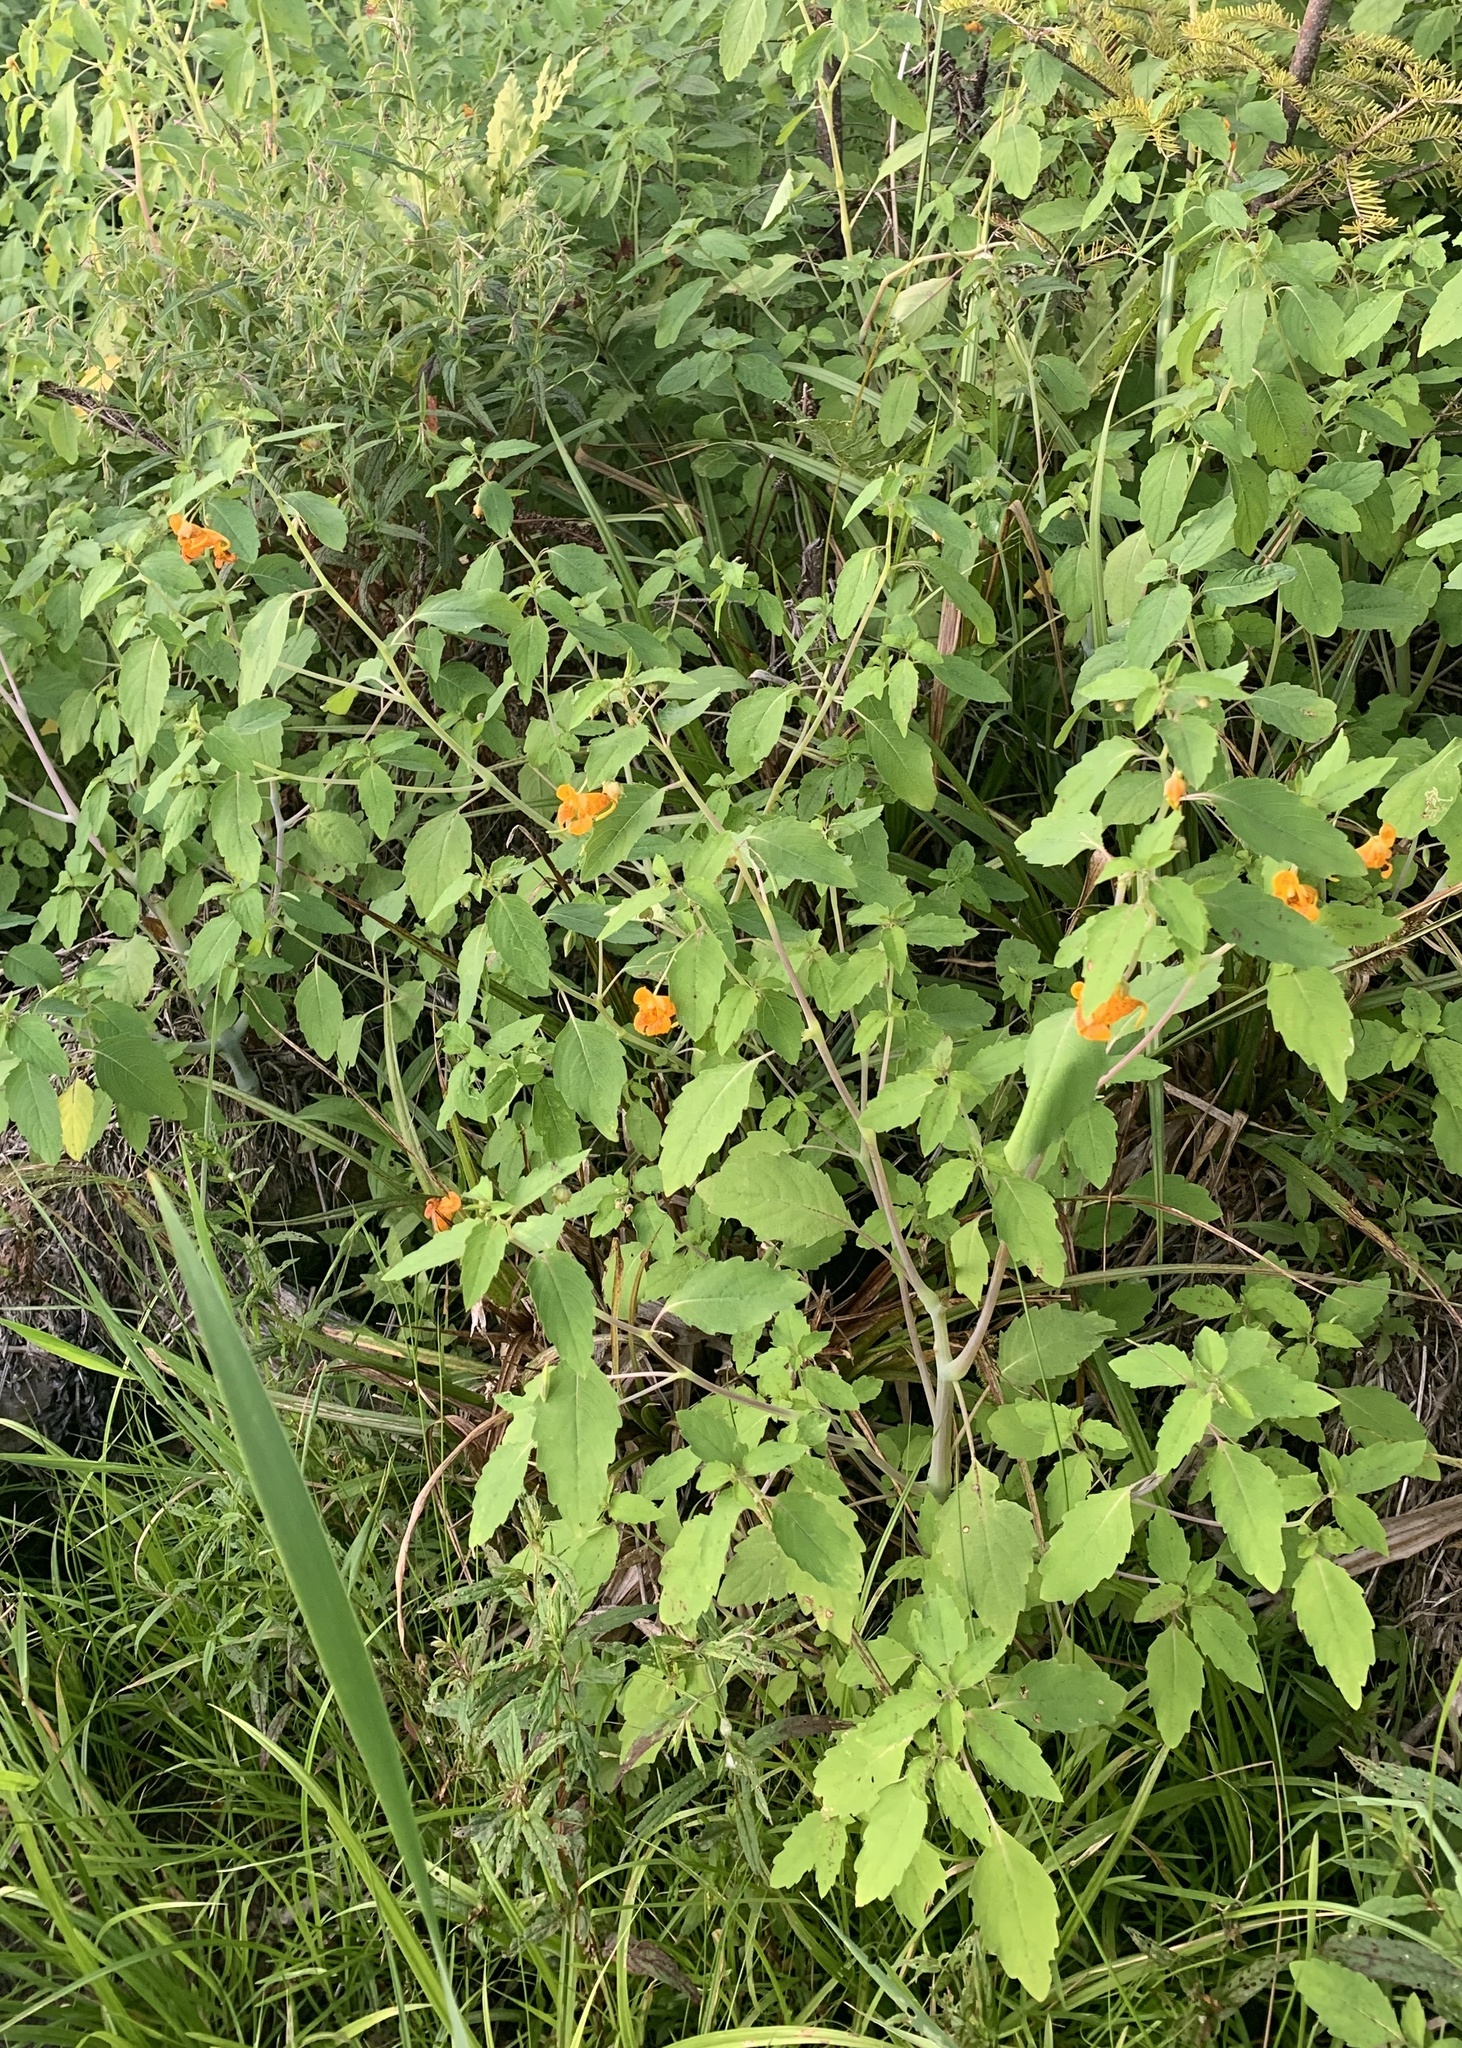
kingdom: Plantae
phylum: Tracheophyta
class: Magnoliopsida
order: Ericales
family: Balsaminaceae
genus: Impatiens
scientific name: Impatiens capensis
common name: Orange balsam
